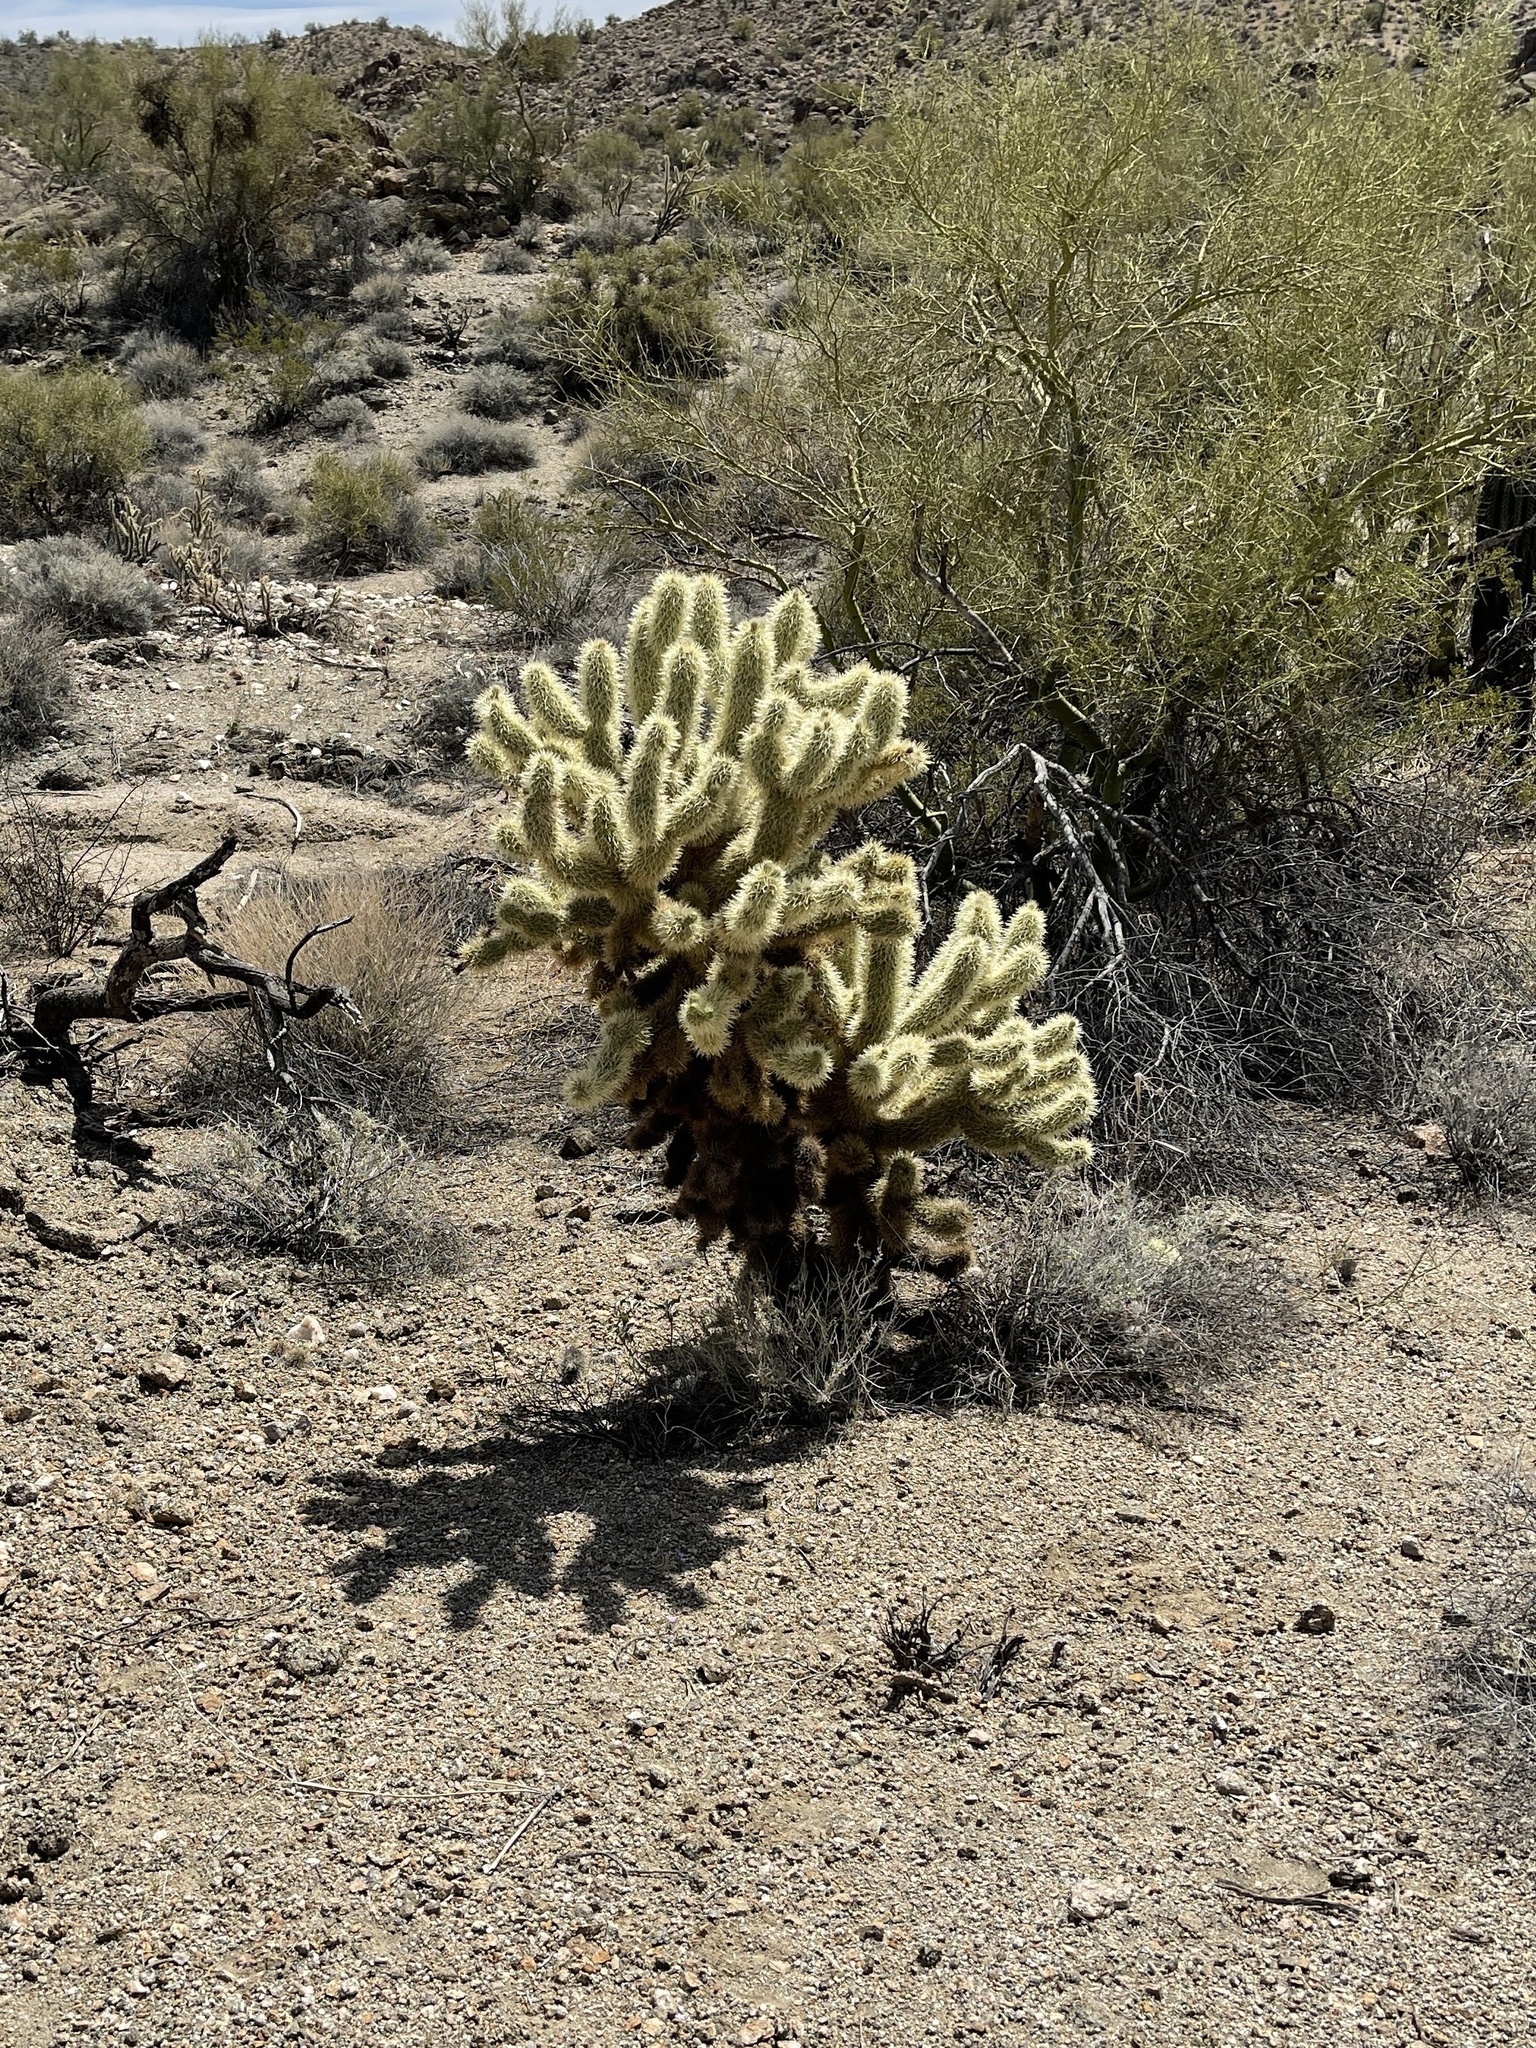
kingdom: Plantae
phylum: Tracheophyta
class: Magnoliopsida
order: Caryophyllales
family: Cactaceae
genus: Cylindropuntia
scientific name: Cylindropuntia fosbergii
